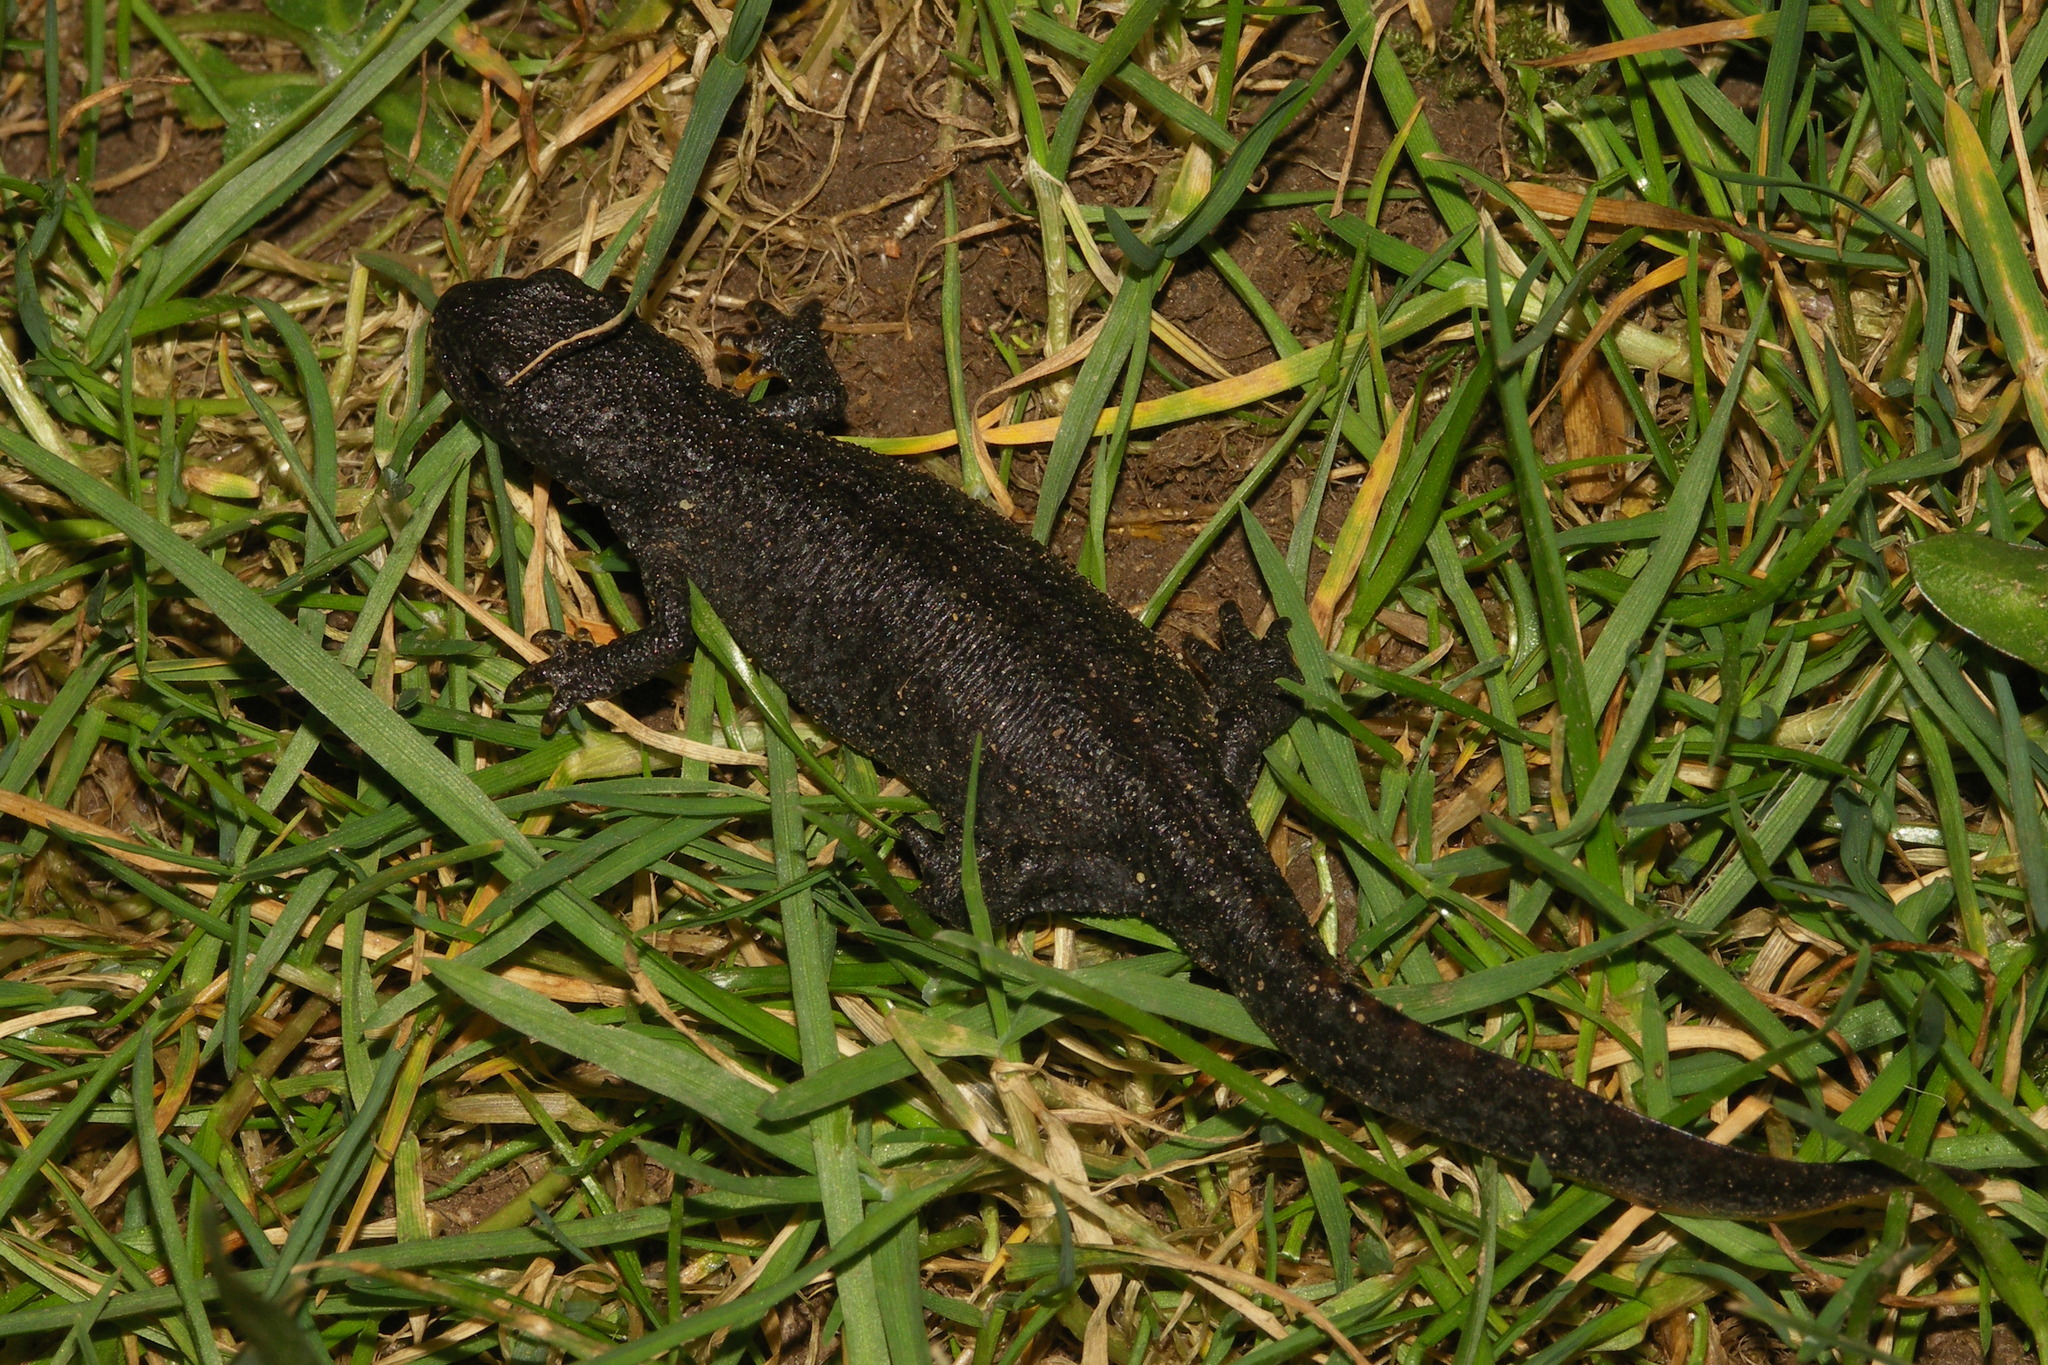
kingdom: Animalia
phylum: Chordata
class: Amphibia
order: Caudata
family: Salamandridae
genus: Ichthyosaura
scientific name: Ichthyosaura alpestris
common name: Alpine newt
